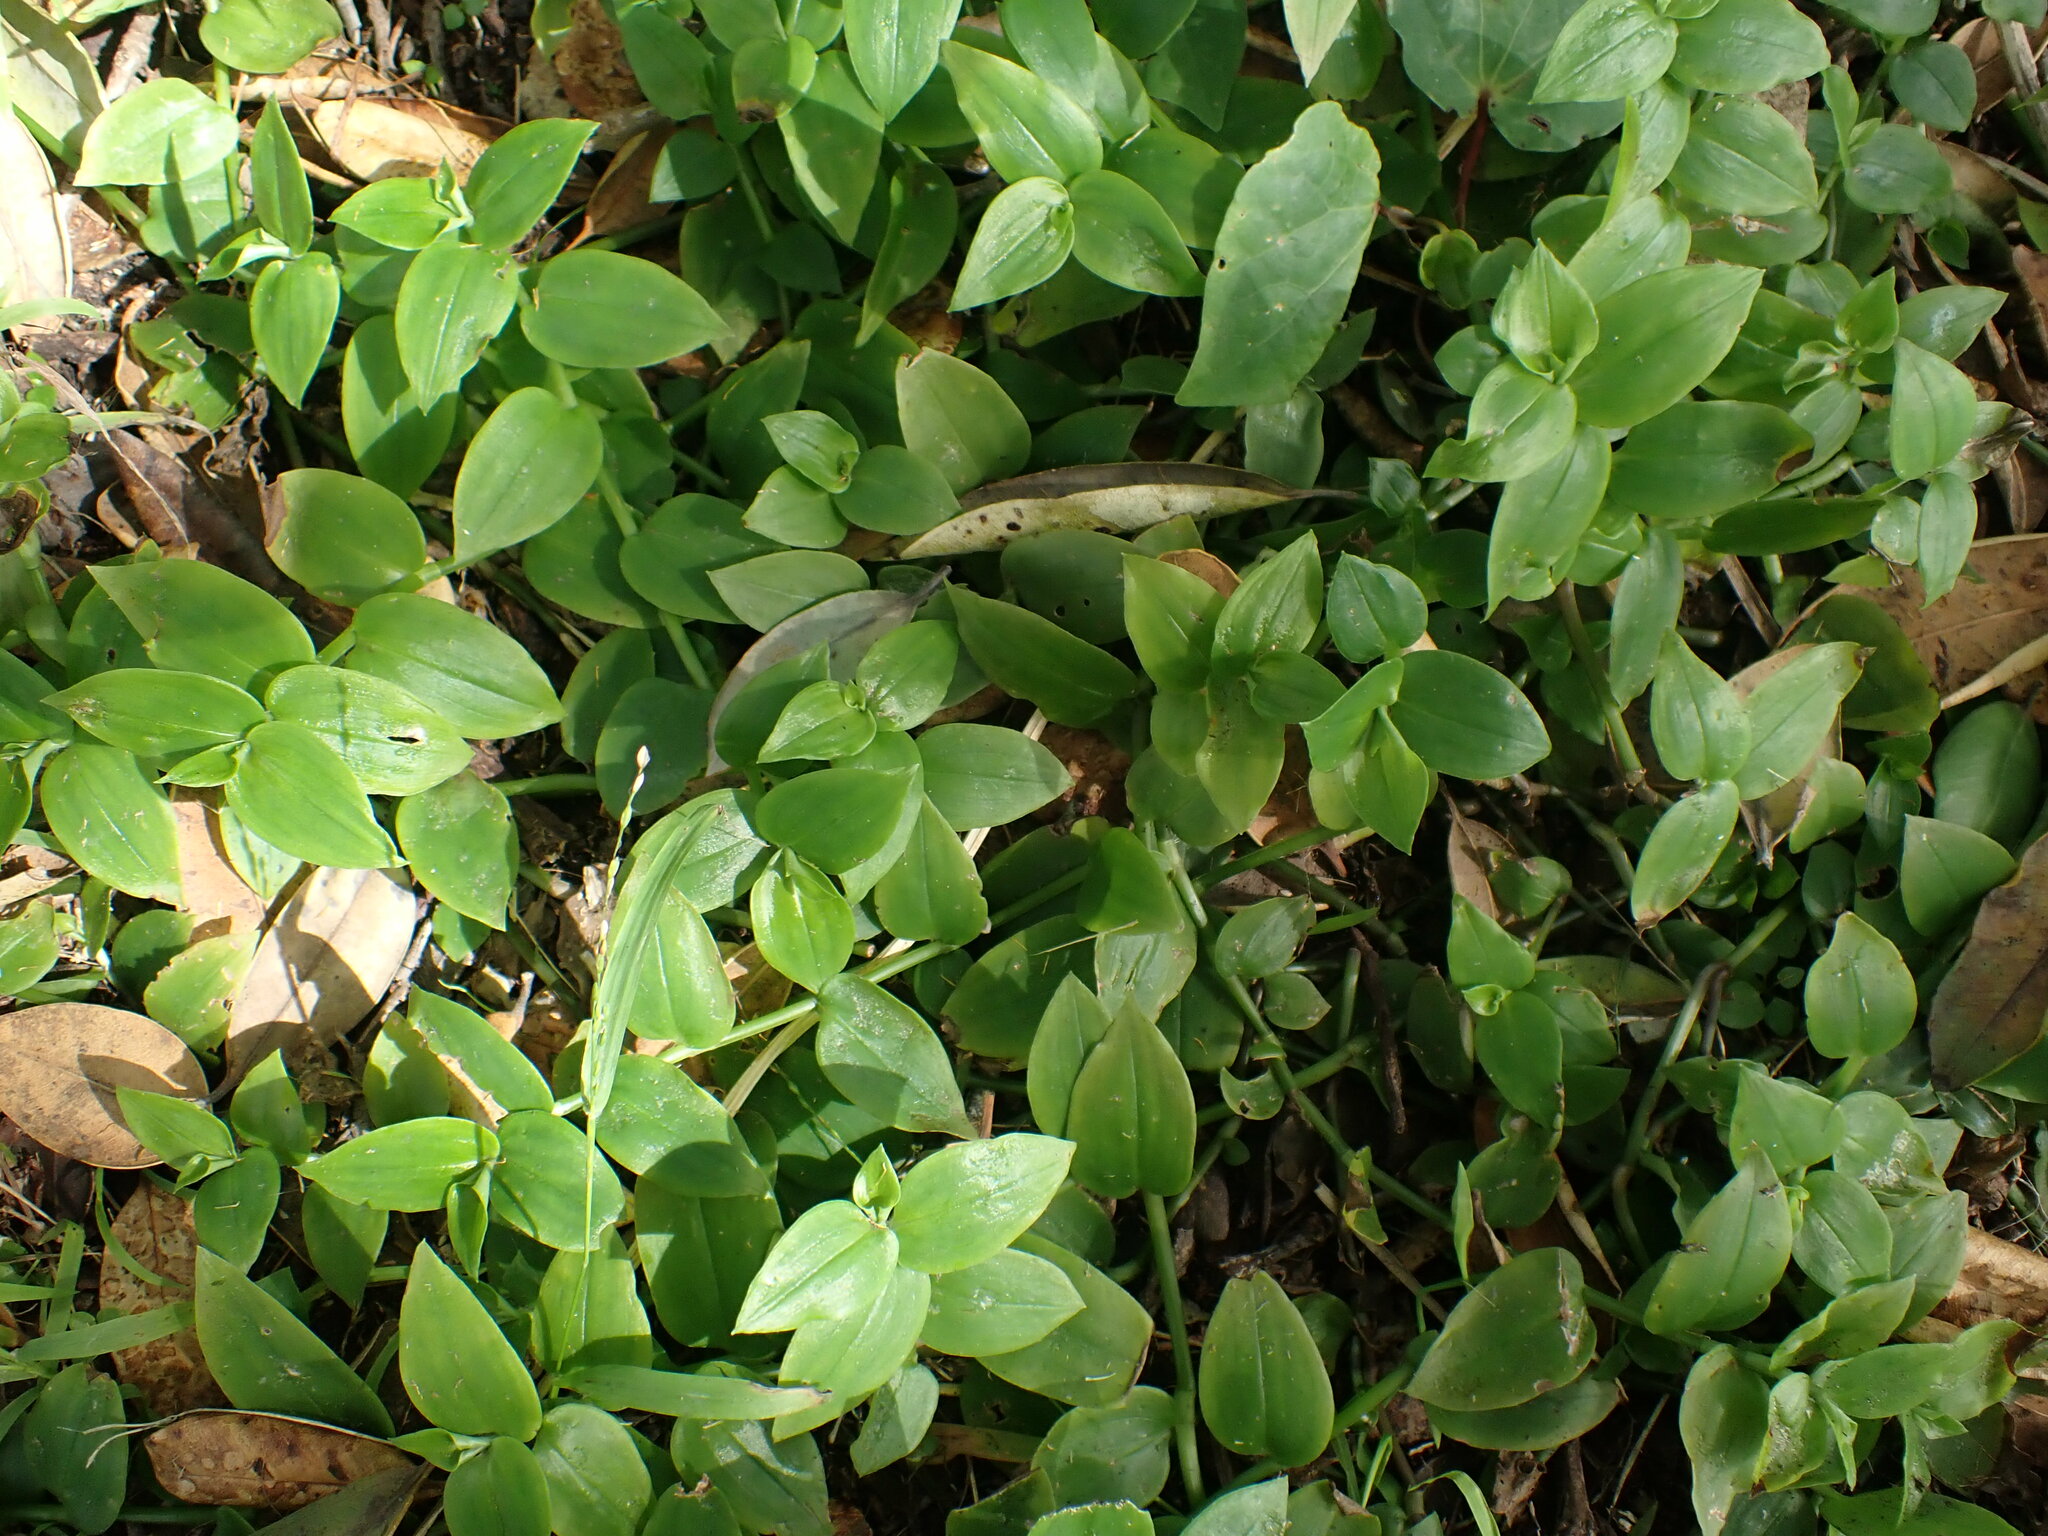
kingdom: Plantae
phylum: Tracheophyta
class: Liliopsida
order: Commelinales
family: Commelinaceae
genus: Tradescantia
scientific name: Tradescantia fluminensis
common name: Wandering-jew
